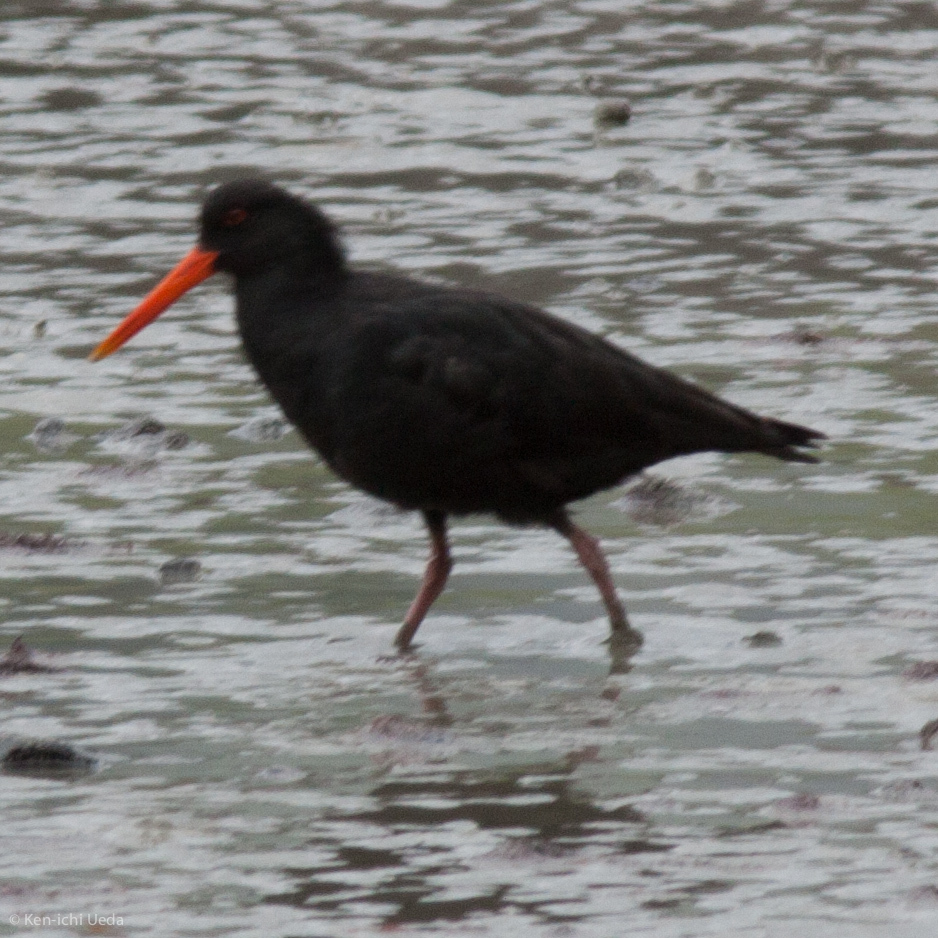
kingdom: Animalia
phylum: Chordata
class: Aves
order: Charadriiformes
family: Haematopodidae
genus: Haematopus
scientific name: Haematopus unicolor
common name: Variable oystercatcher
